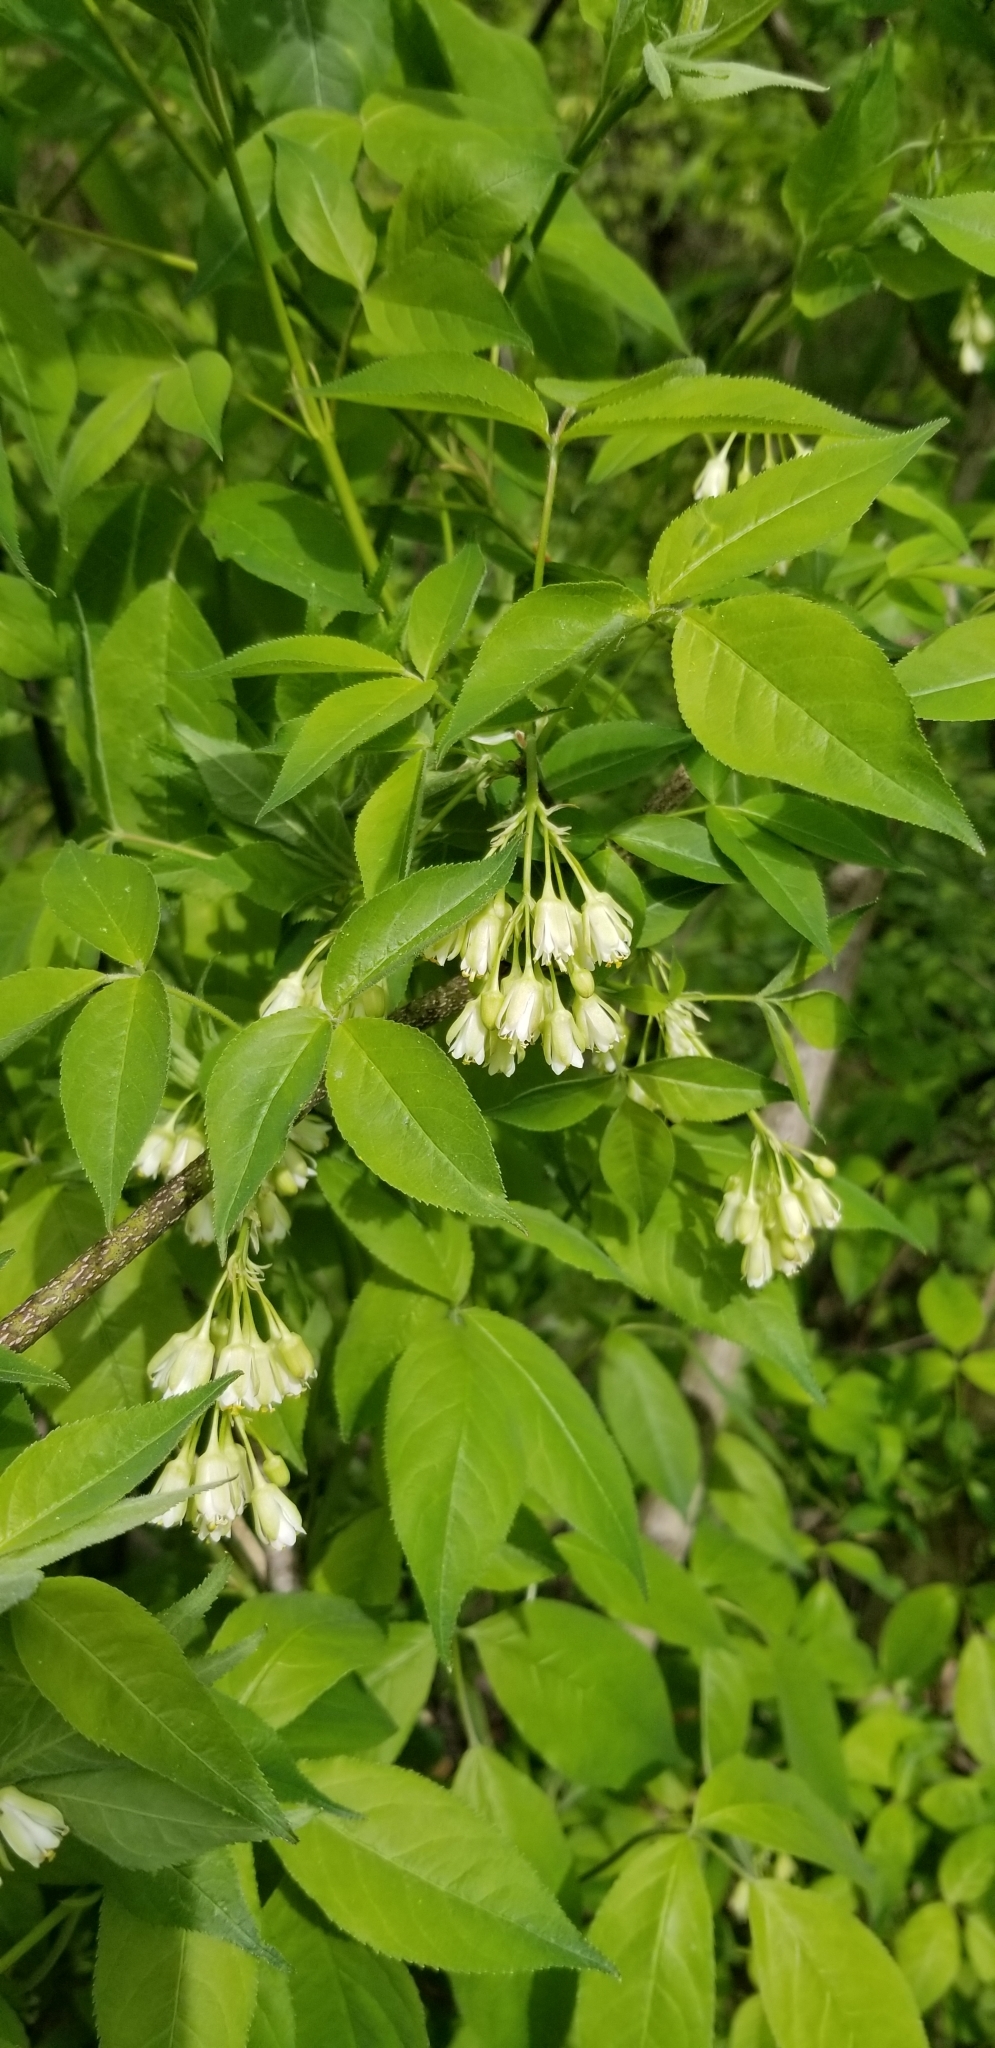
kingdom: Plantae
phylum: Tracheophyta
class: Magnoliopsida
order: Crossosomatales
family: Staphyleaceae
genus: Staphylea
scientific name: Staphylea trifolia
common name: American bladdernut
